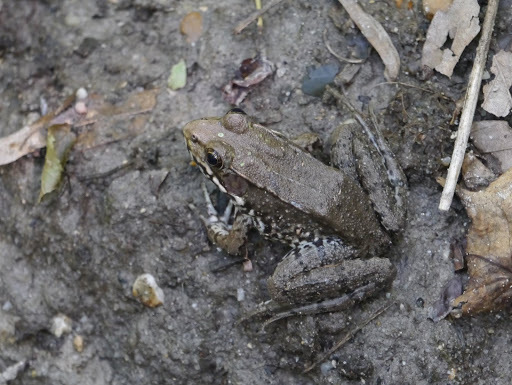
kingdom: Animalia
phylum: Chordata
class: Amphibia
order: Anura
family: Ranidae
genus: Lithobates
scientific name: Lithobates clamitans
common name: Green frog
